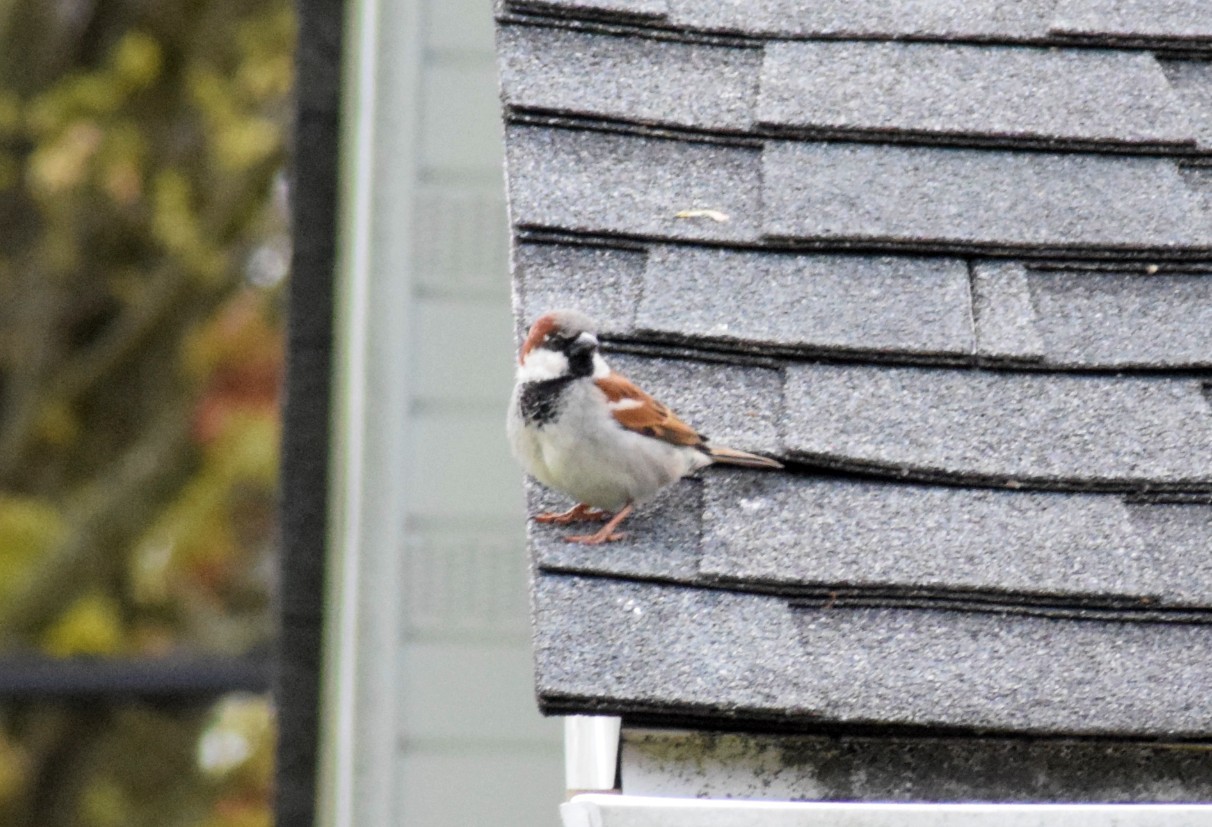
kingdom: Animalia
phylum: Chordata
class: Aves
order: Passeriformes
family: Passeridae
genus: Passer
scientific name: Passer domesticus
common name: House sparrow
